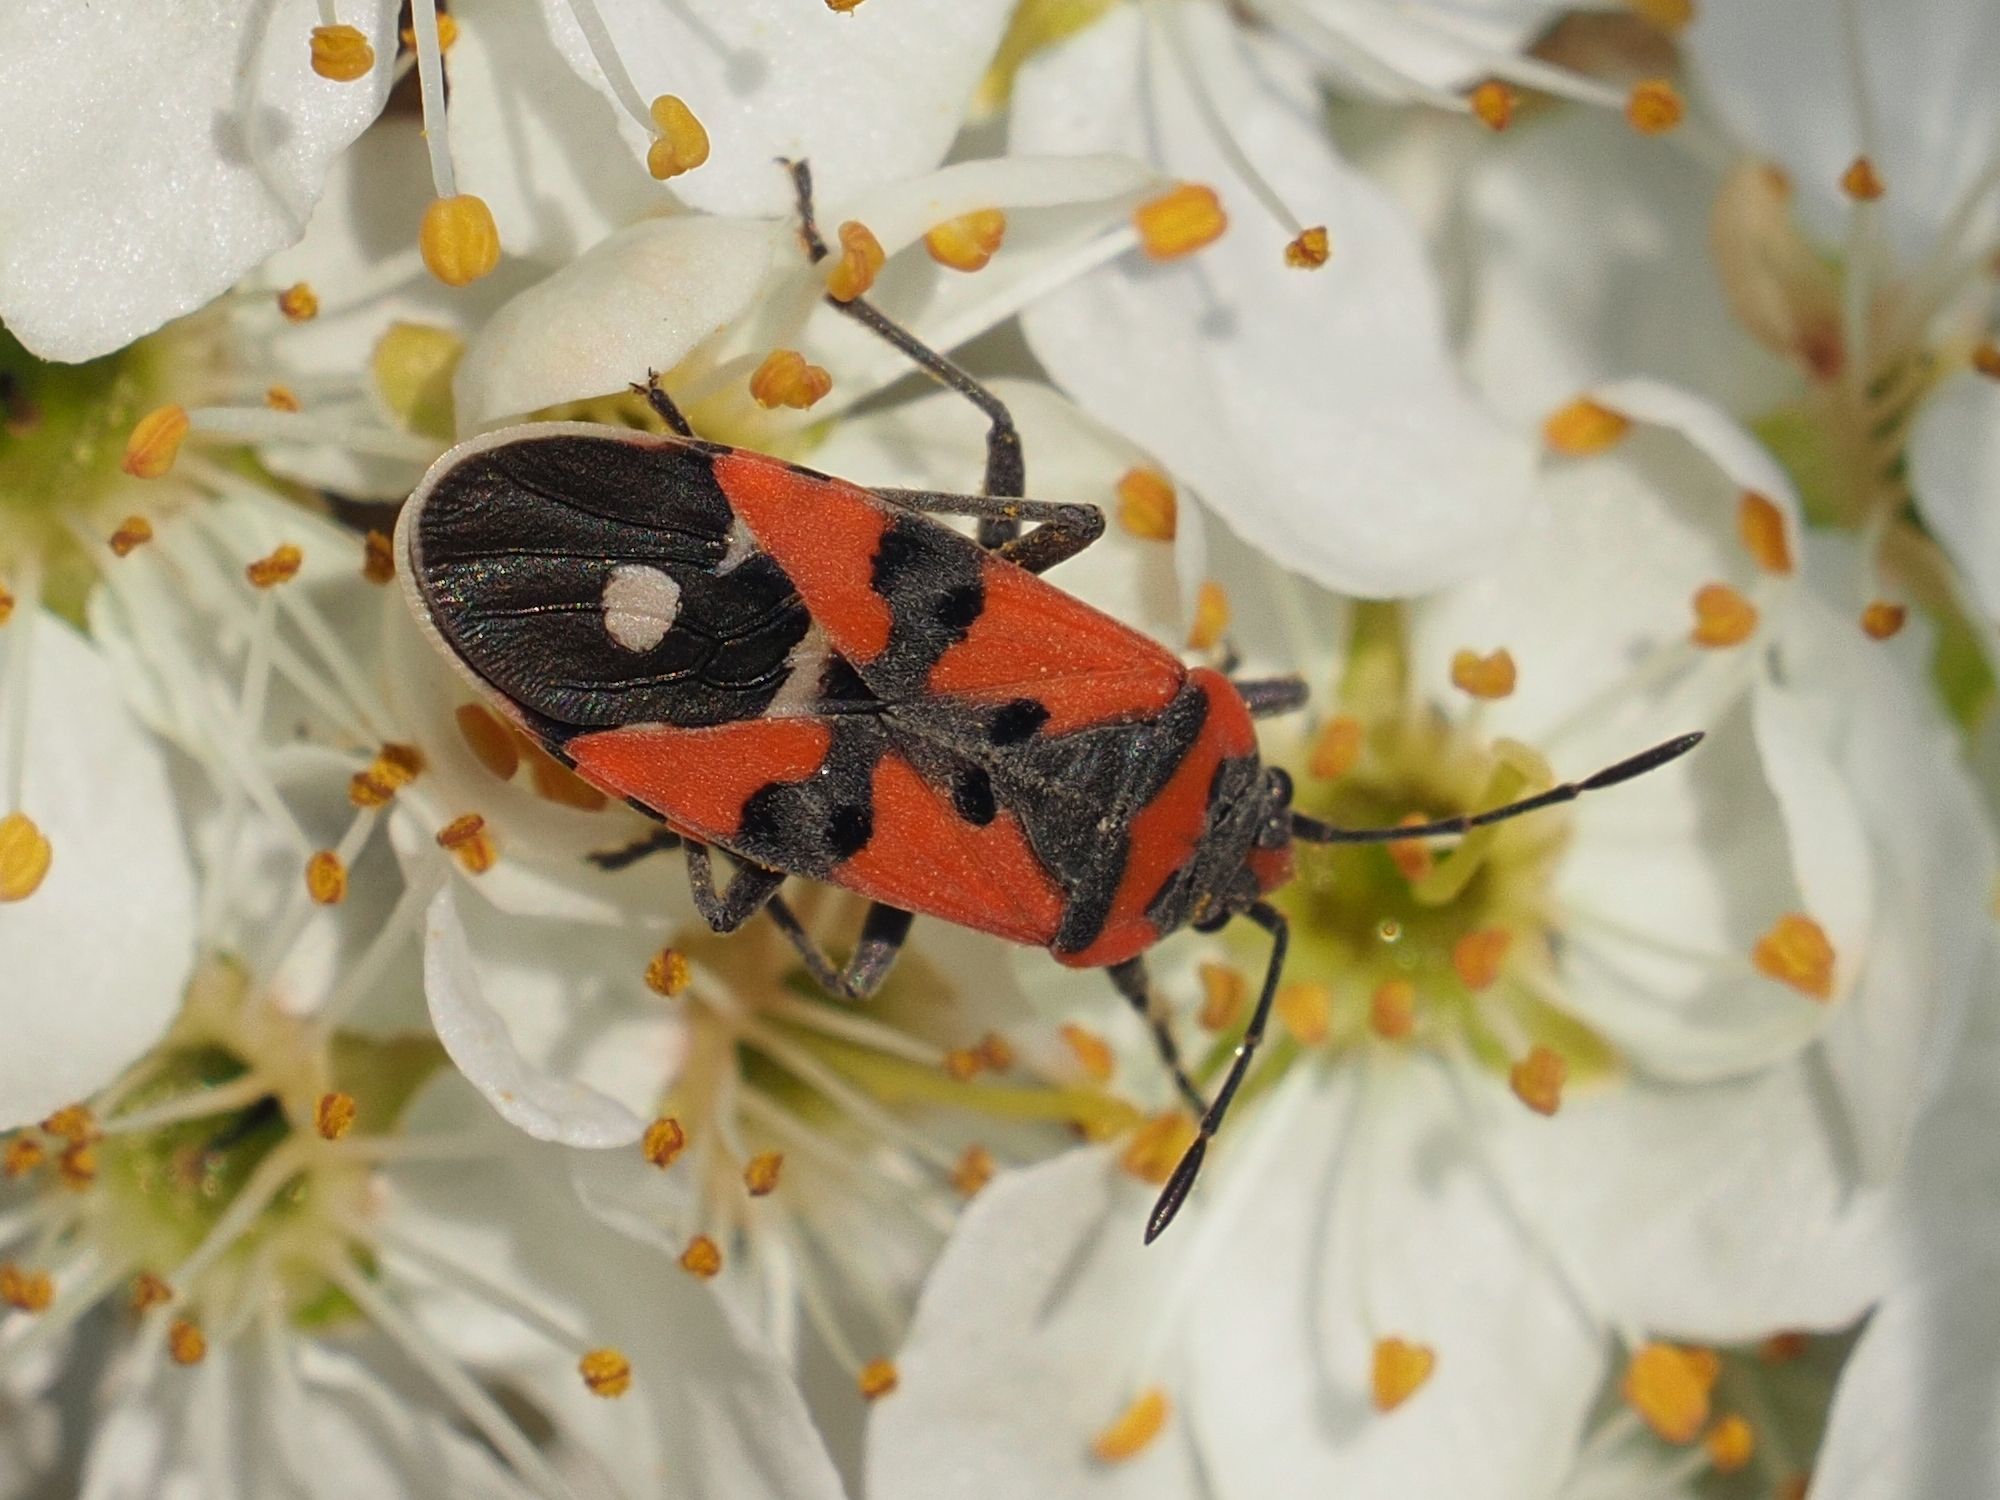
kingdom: Animalia
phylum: Arthropoda
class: Insecta
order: Hemiptera
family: Lygaeidae
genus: Lygaeus
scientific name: Lygaeus equestris
